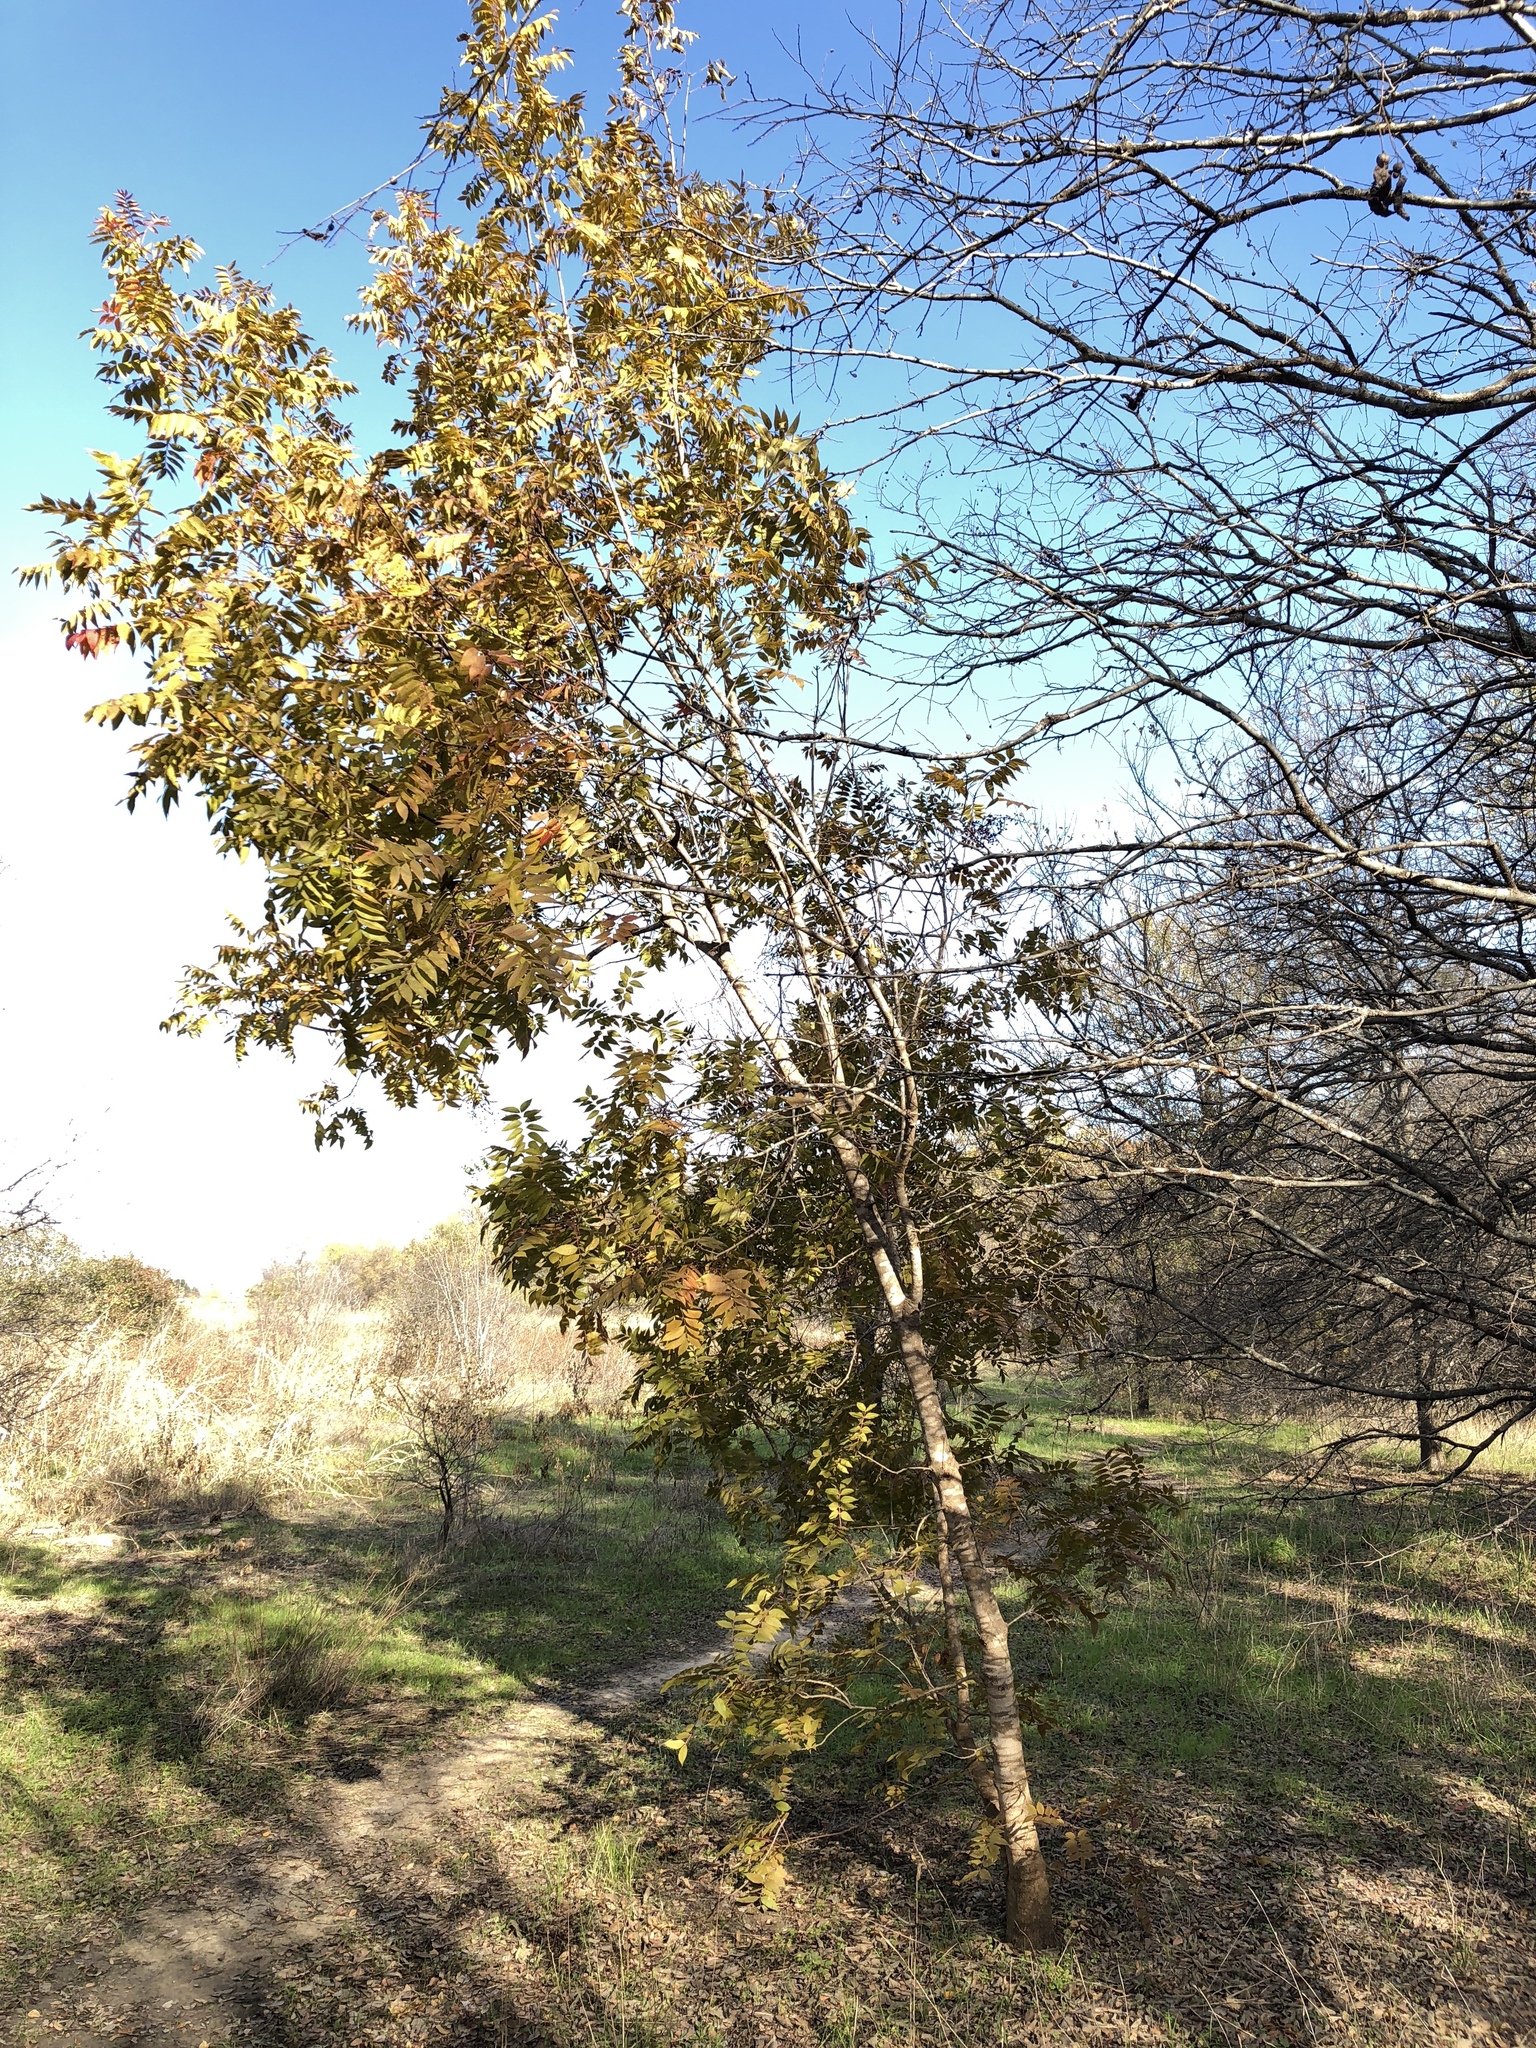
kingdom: Plantae
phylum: Tracheophyta
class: Magnoliopsida
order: Sapindales
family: Anacardiaceae
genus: Pistacia
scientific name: Pistacia chinensis
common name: Chinese pistache
